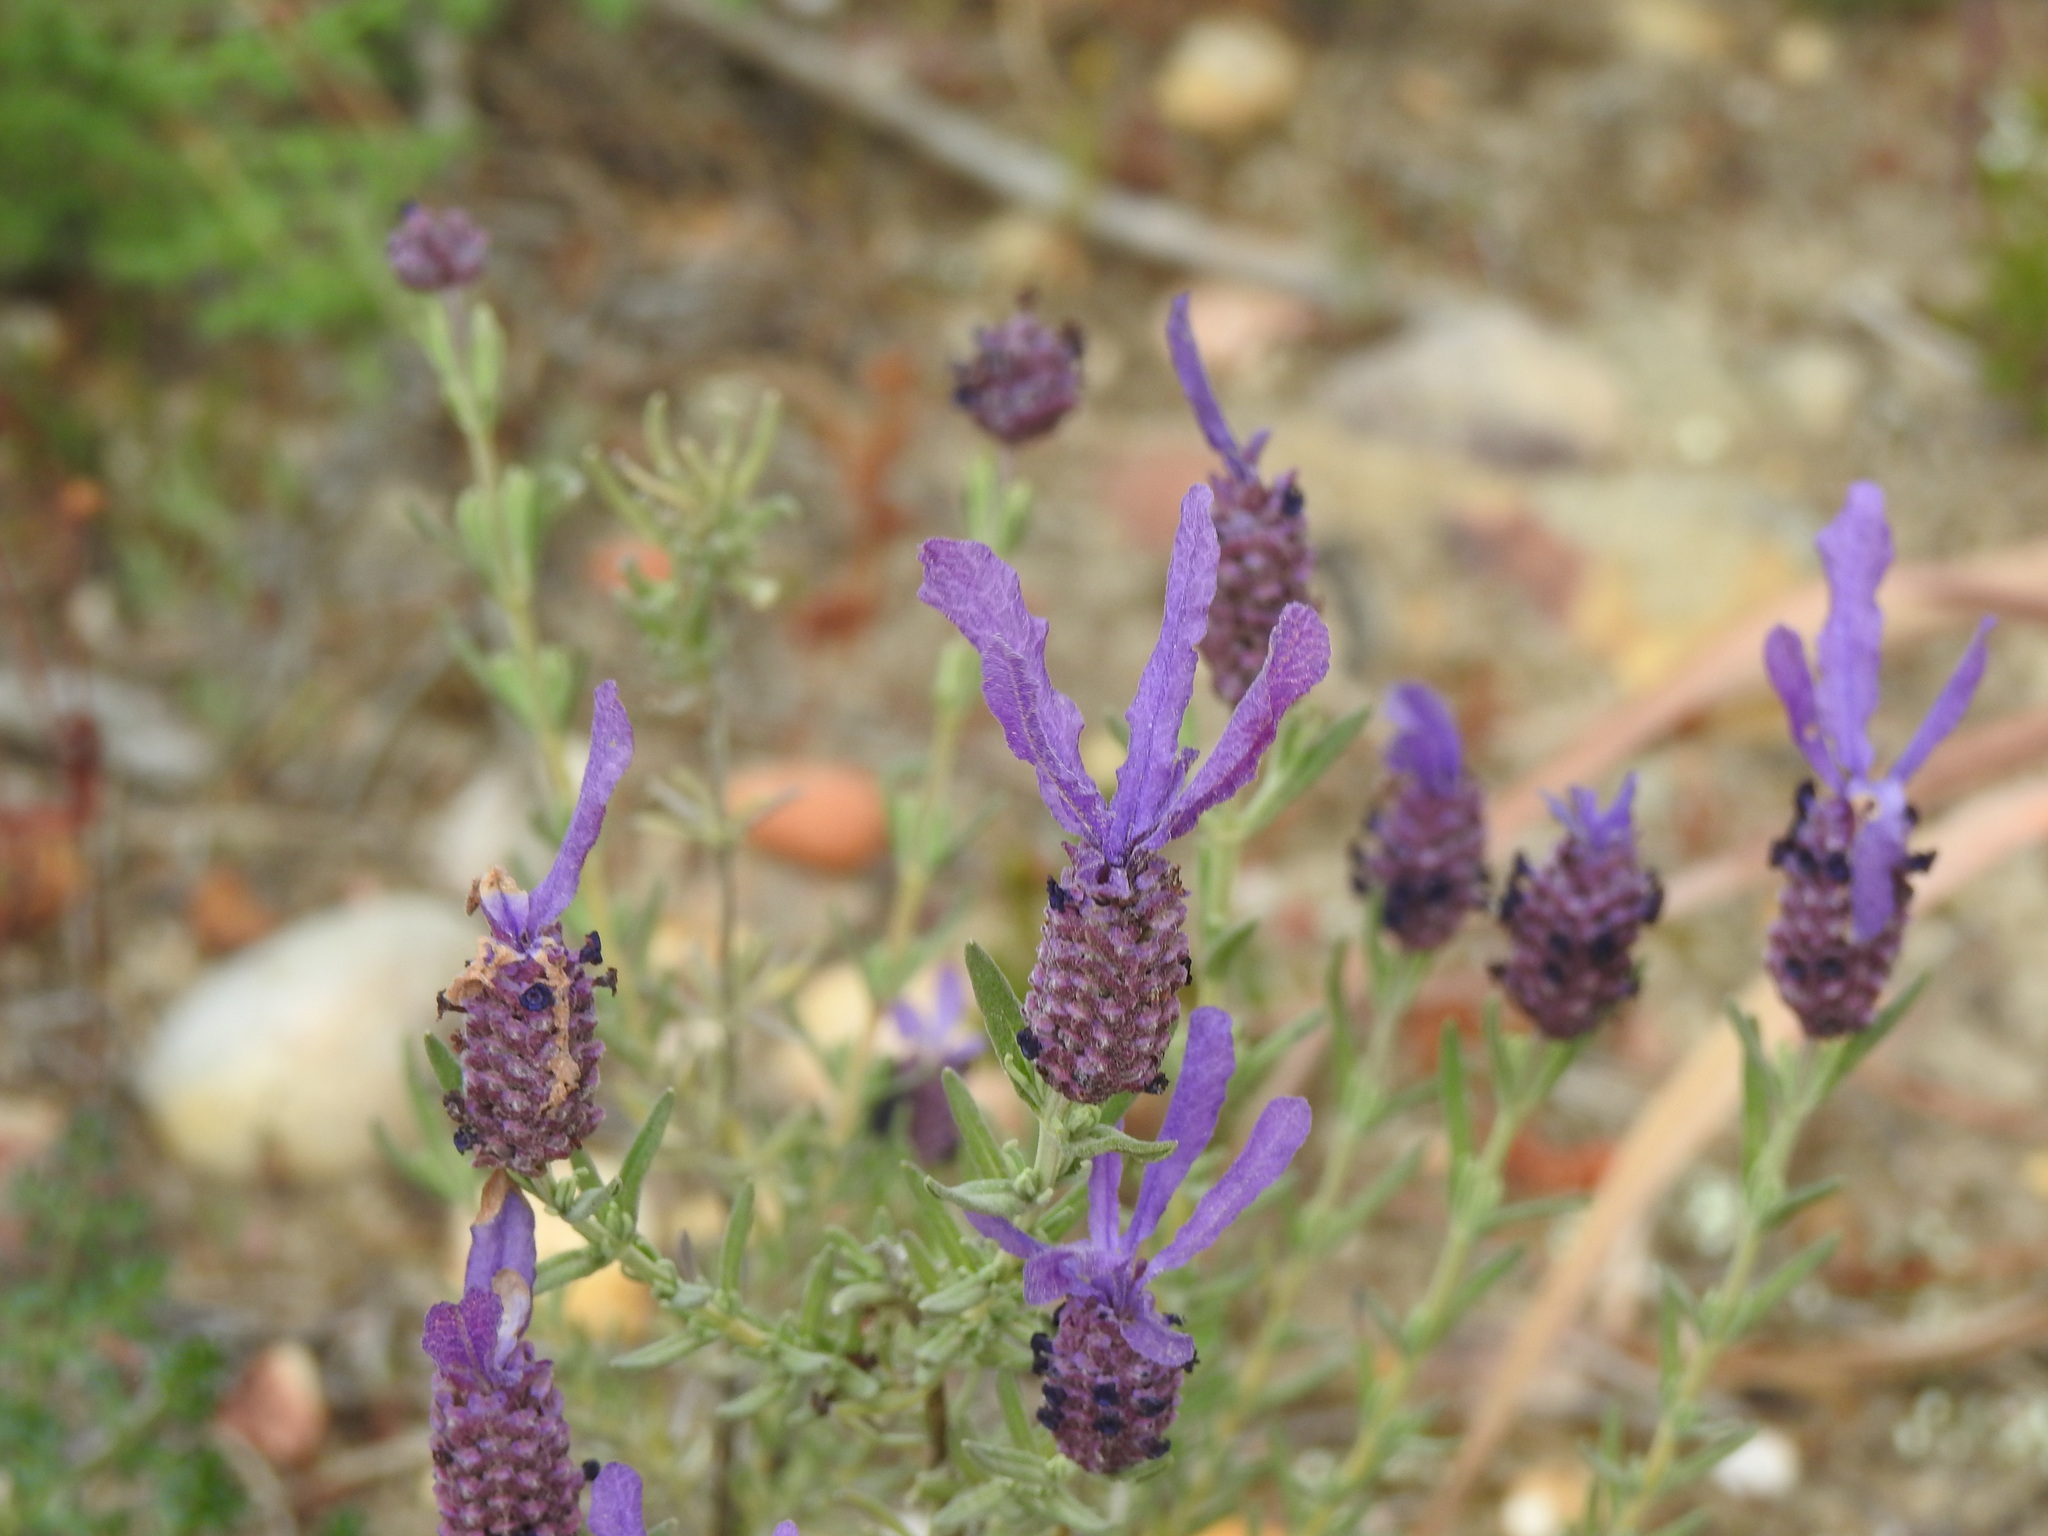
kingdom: Plantae
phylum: Tracheophyta
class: Magnoliopsida
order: Lamiales
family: Lamiaceae
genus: Lavandula
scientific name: Lavandula stoechas
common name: French lavender
